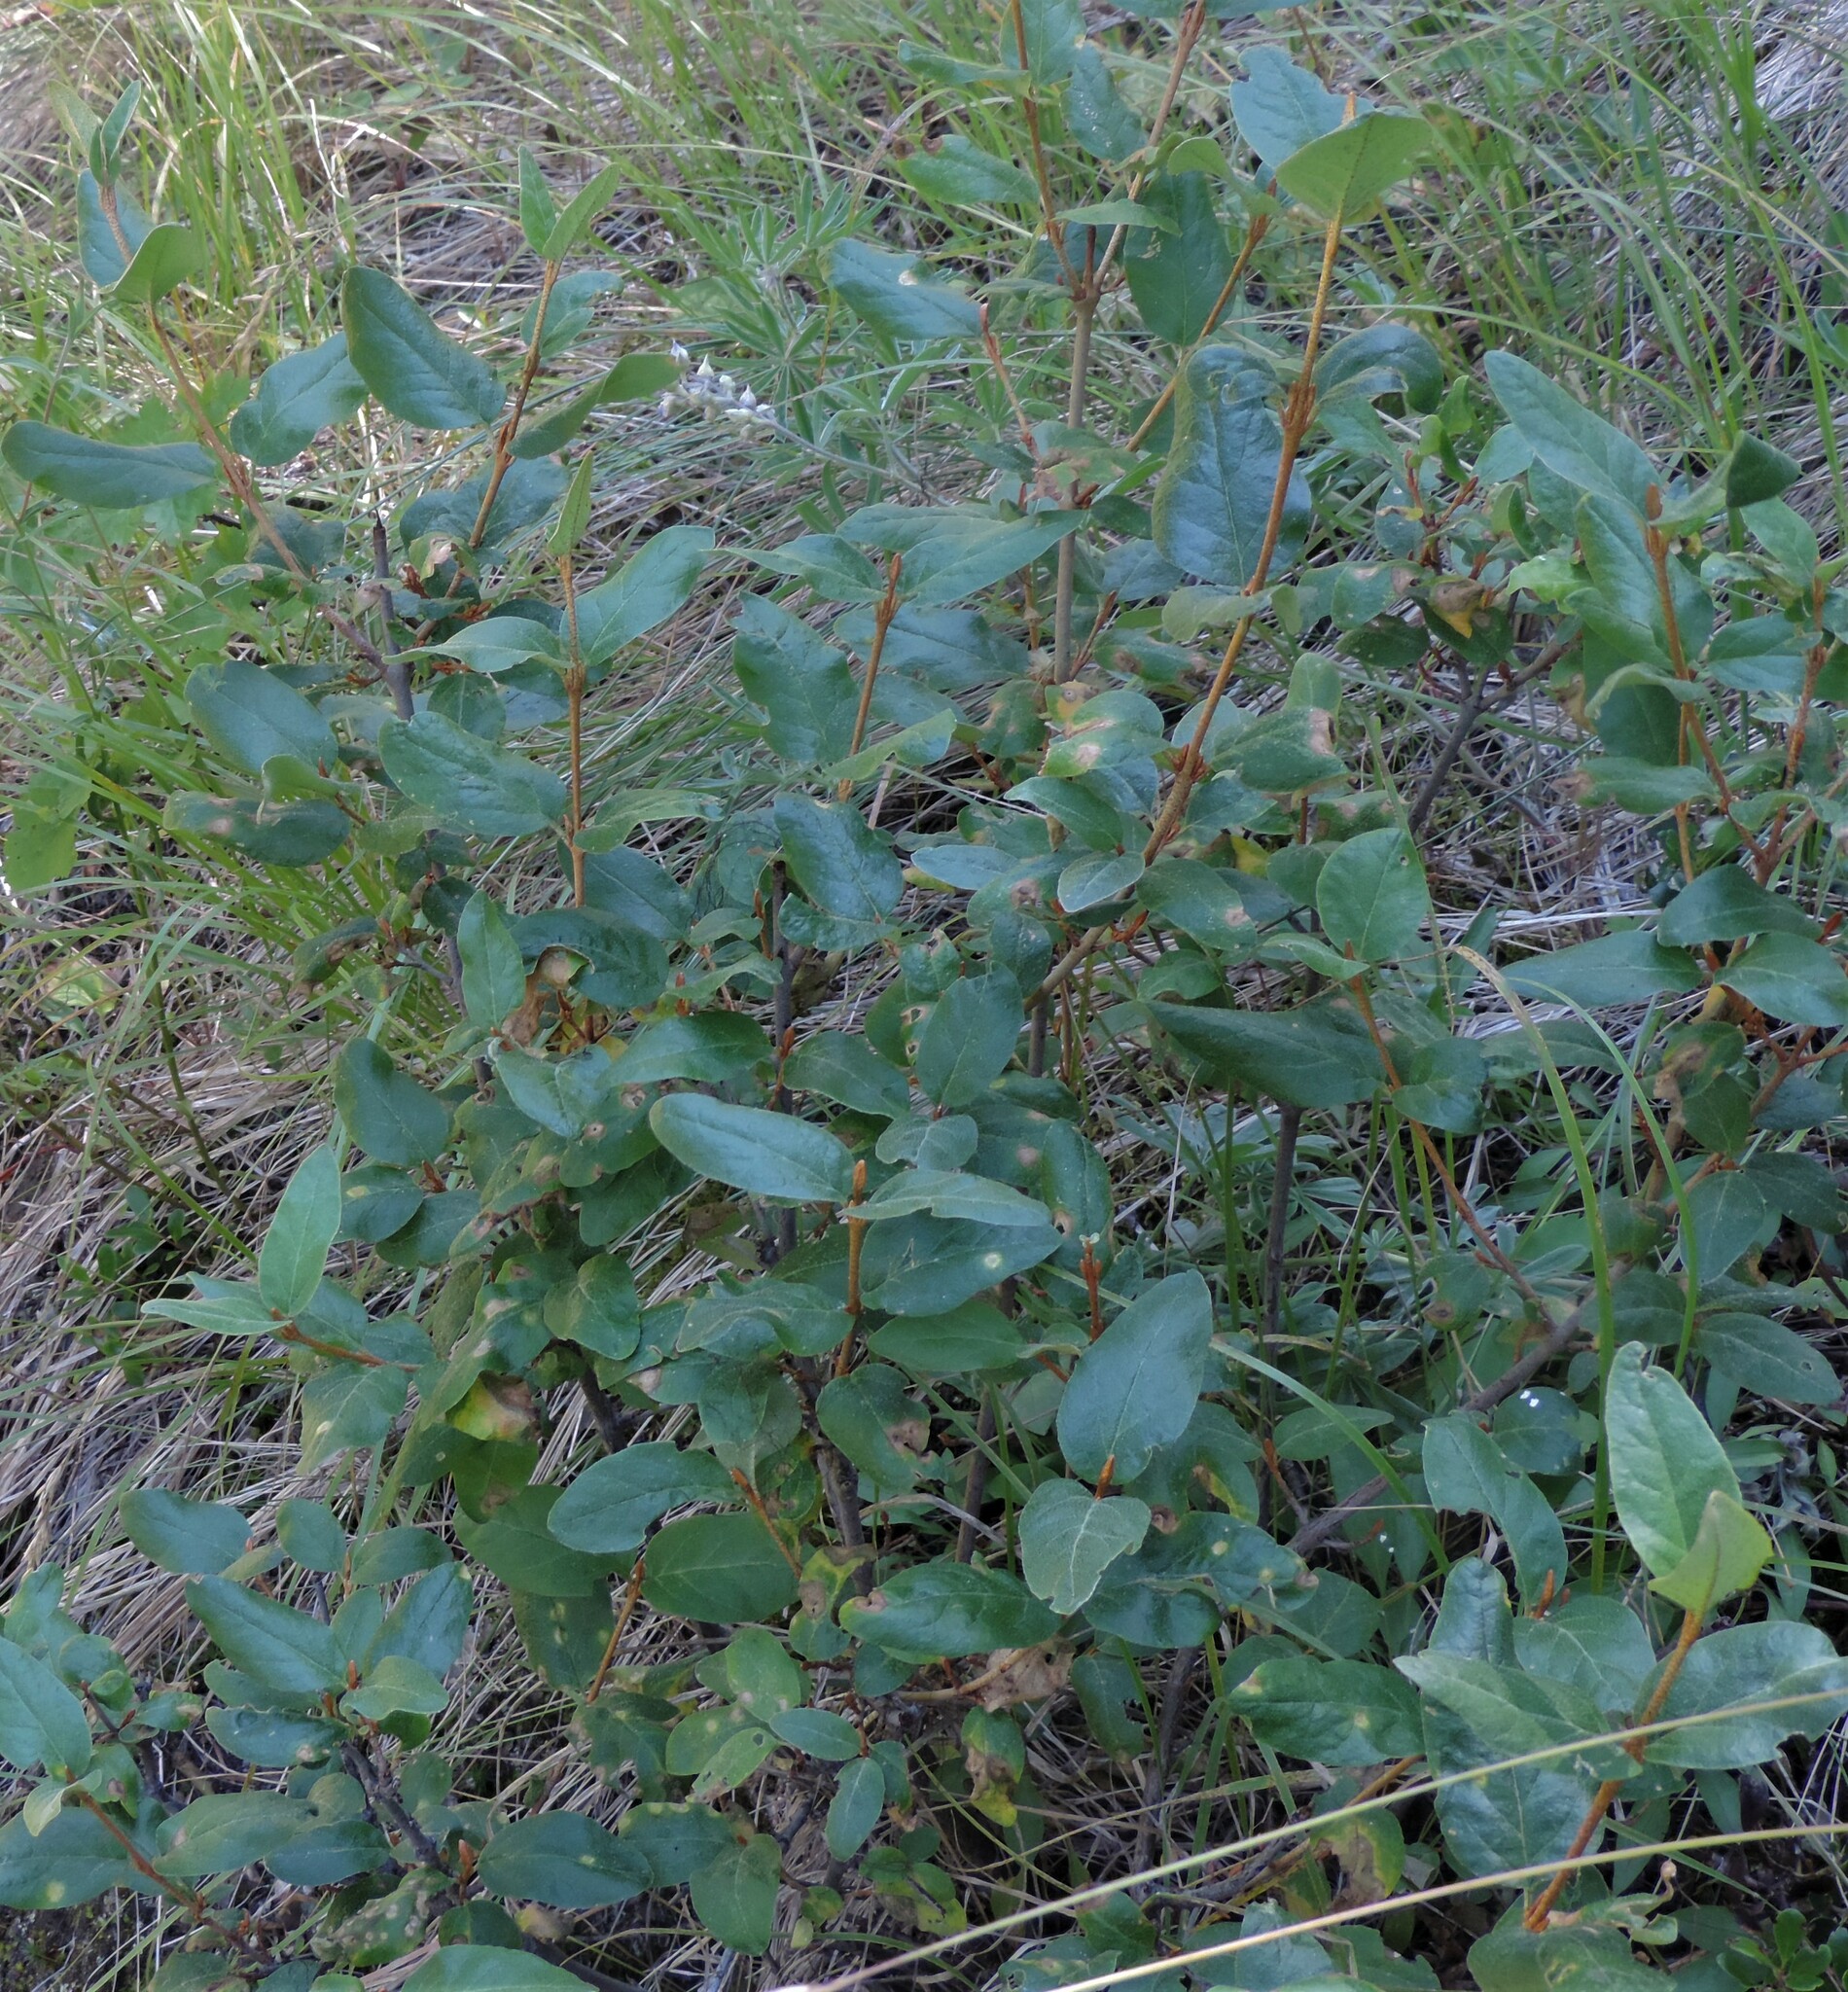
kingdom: Plantae
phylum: Tracheophyta
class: Magnoliopsida
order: Rosales
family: Elaeagnaceae
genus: Shepherdia
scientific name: Shepherdia canadensis
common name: Soapberry
